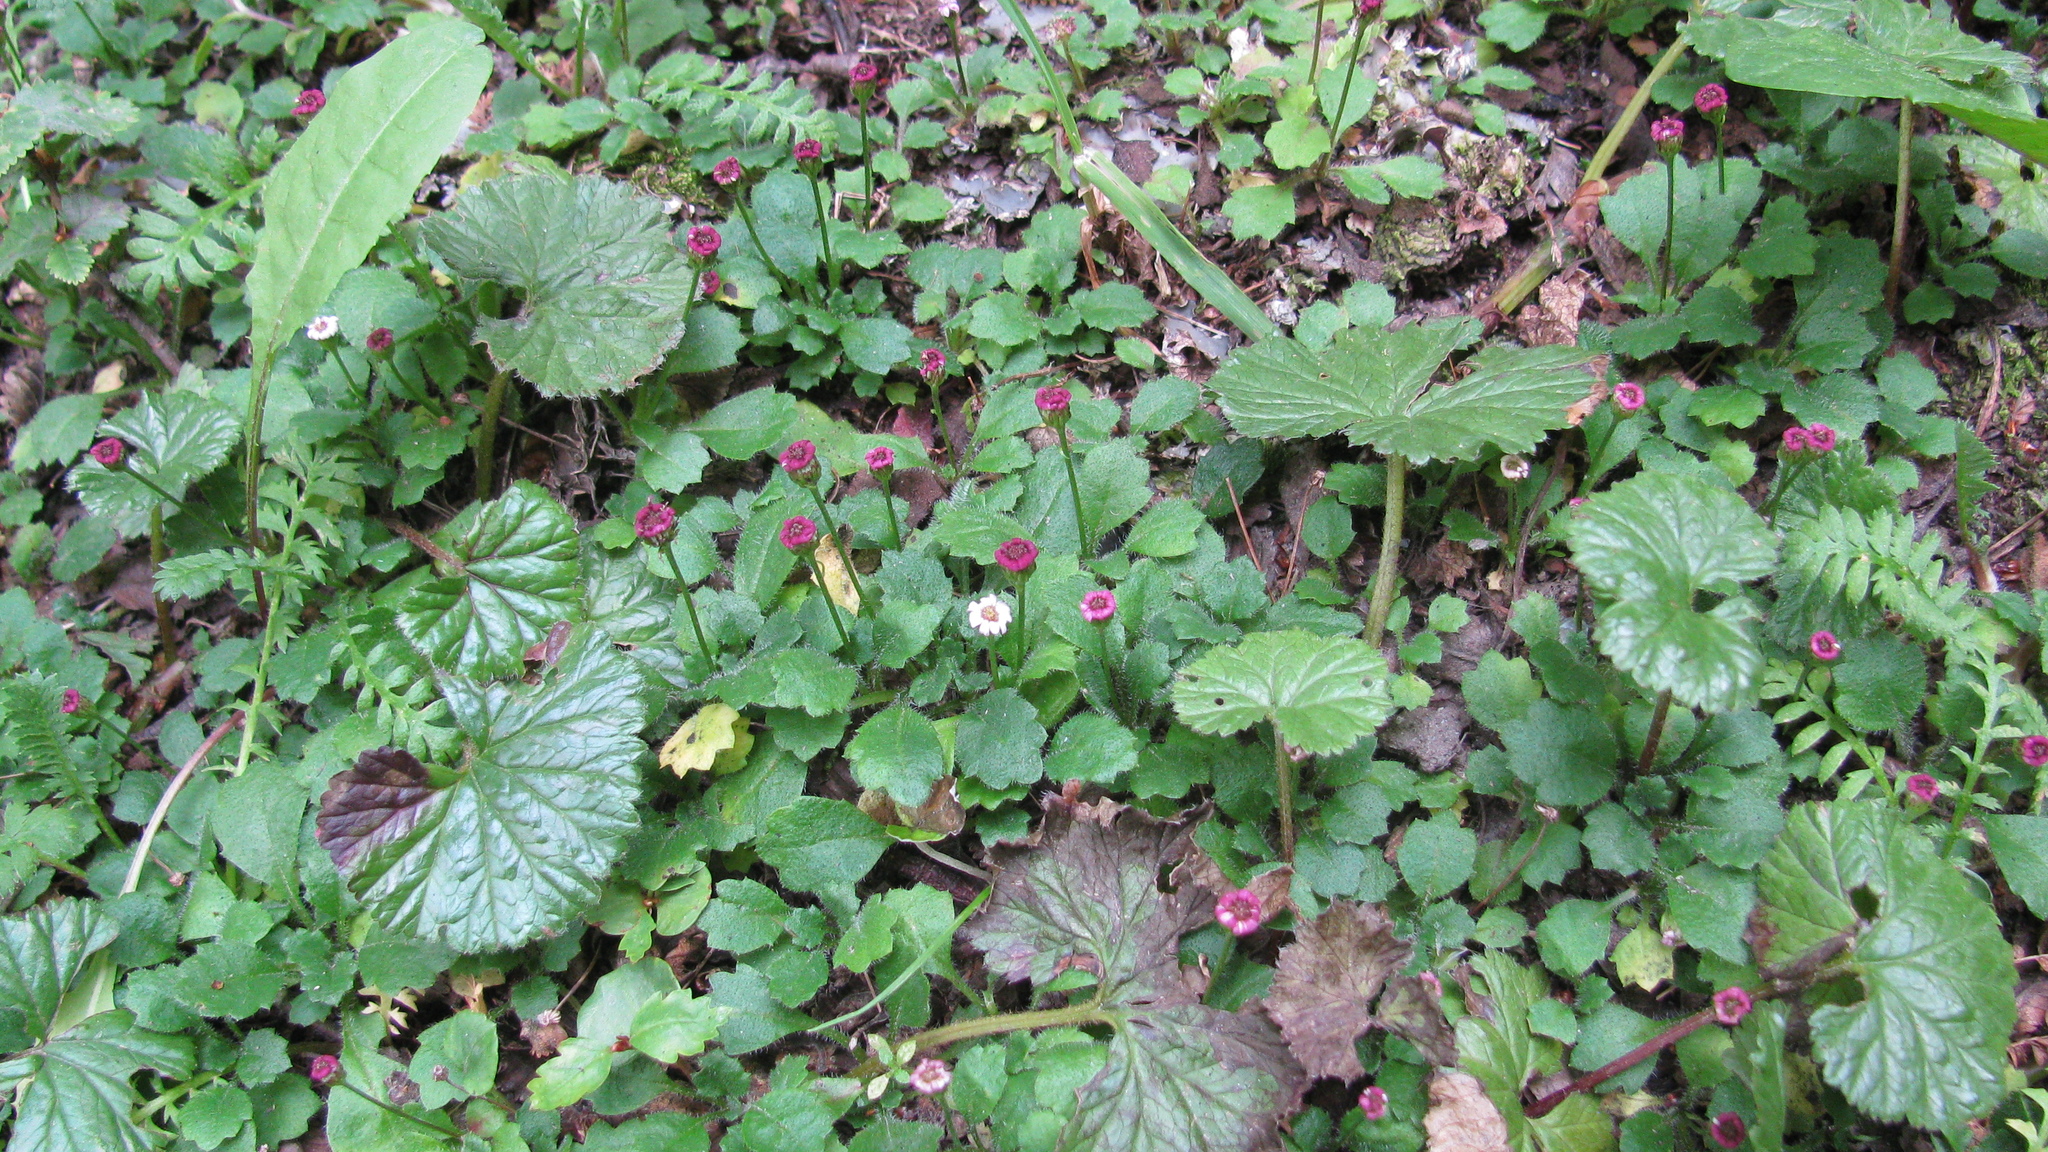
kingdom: Plantae
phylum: Tracheophyta
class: Magnoliopsida
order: Asterales
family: Asteraceae
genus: Lagenophora
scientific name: Lagenophora hariotii
